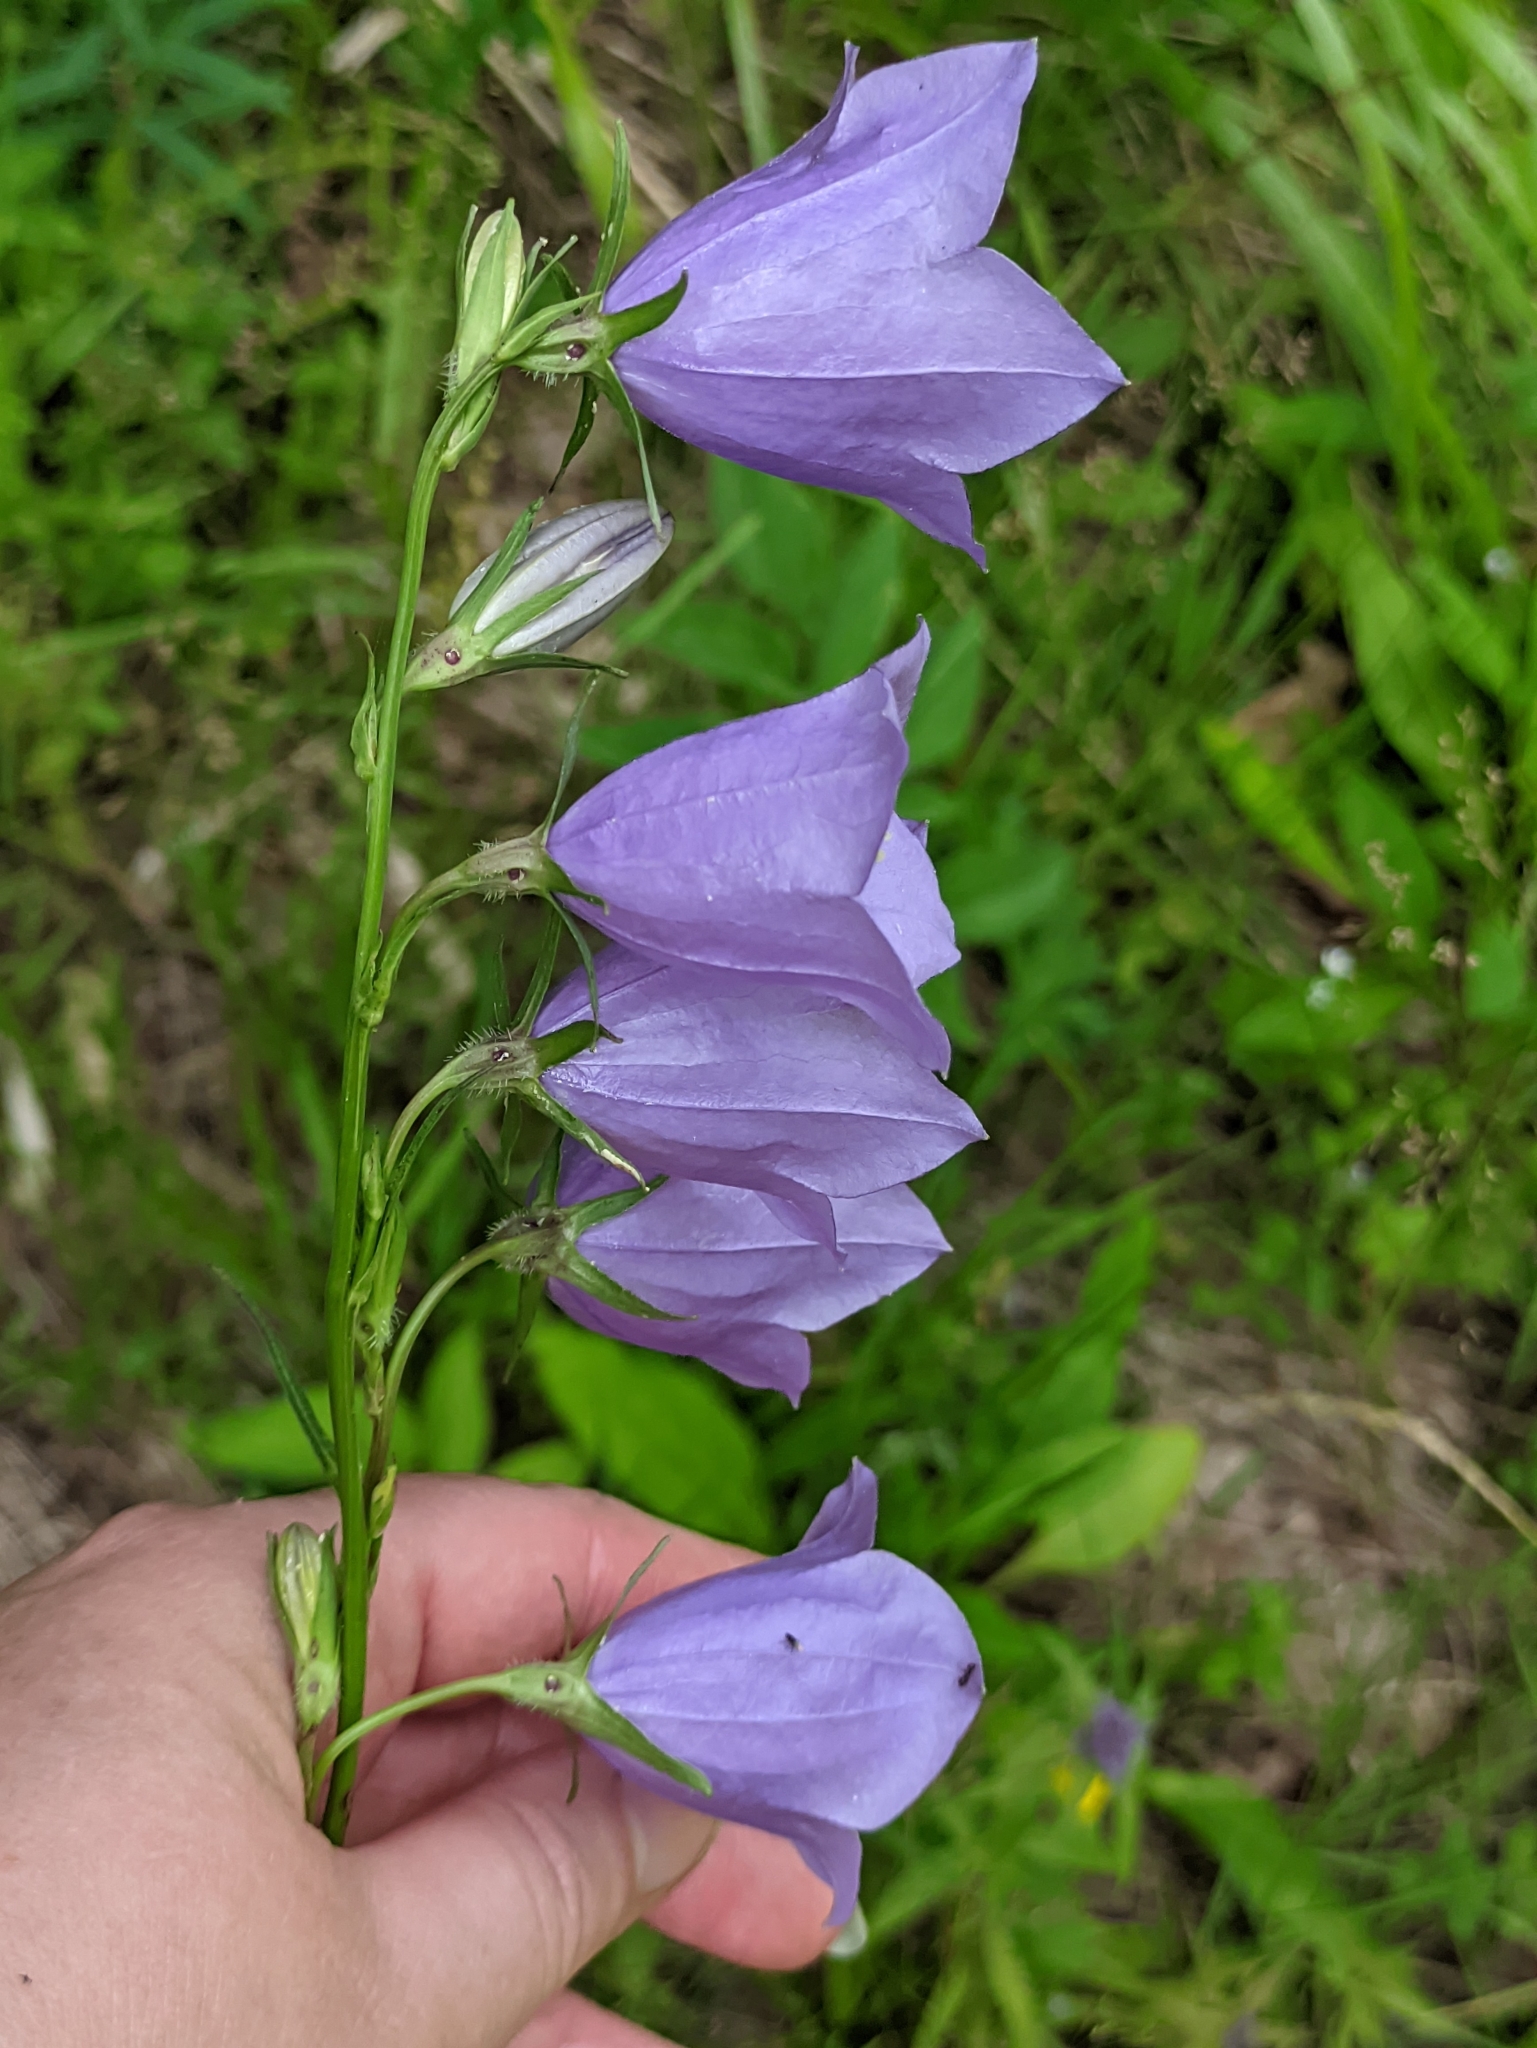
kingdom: Plantae
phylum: Tracheophyta
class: Magnoliopsida
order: Asterales
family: Campanulaceae
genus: Campanula
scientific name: Campanula persicifolia
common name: Peach-leaved bellflower
